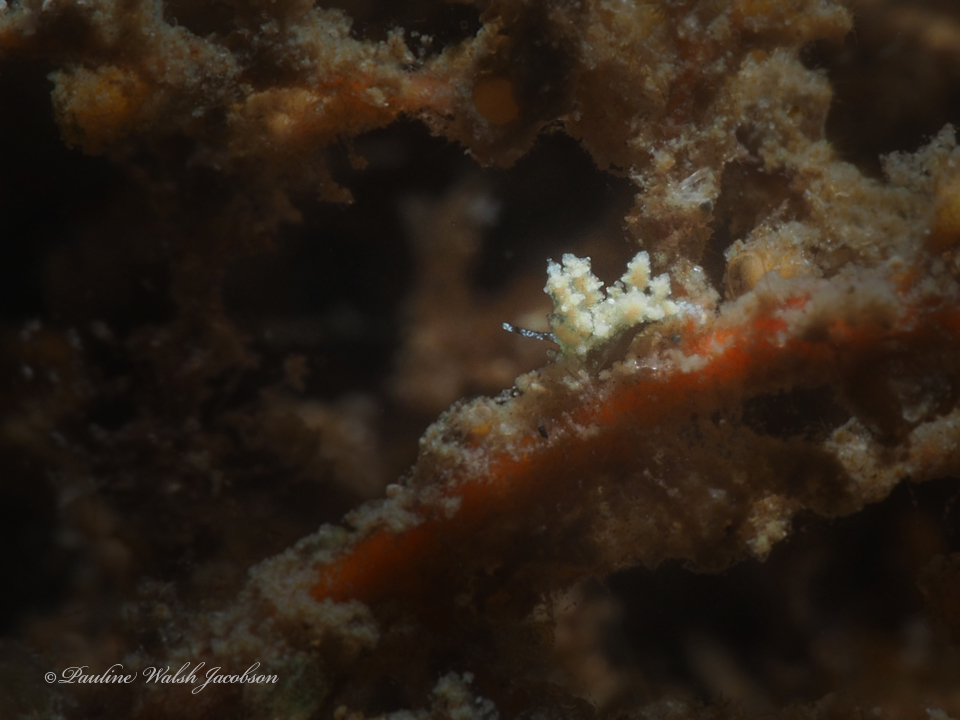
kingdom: Animalia
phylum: Mollusca
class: Gastropoda
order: Nudibranchia
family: Eubranchidae
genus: Eubranchus
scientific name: Eubranchus conicla
